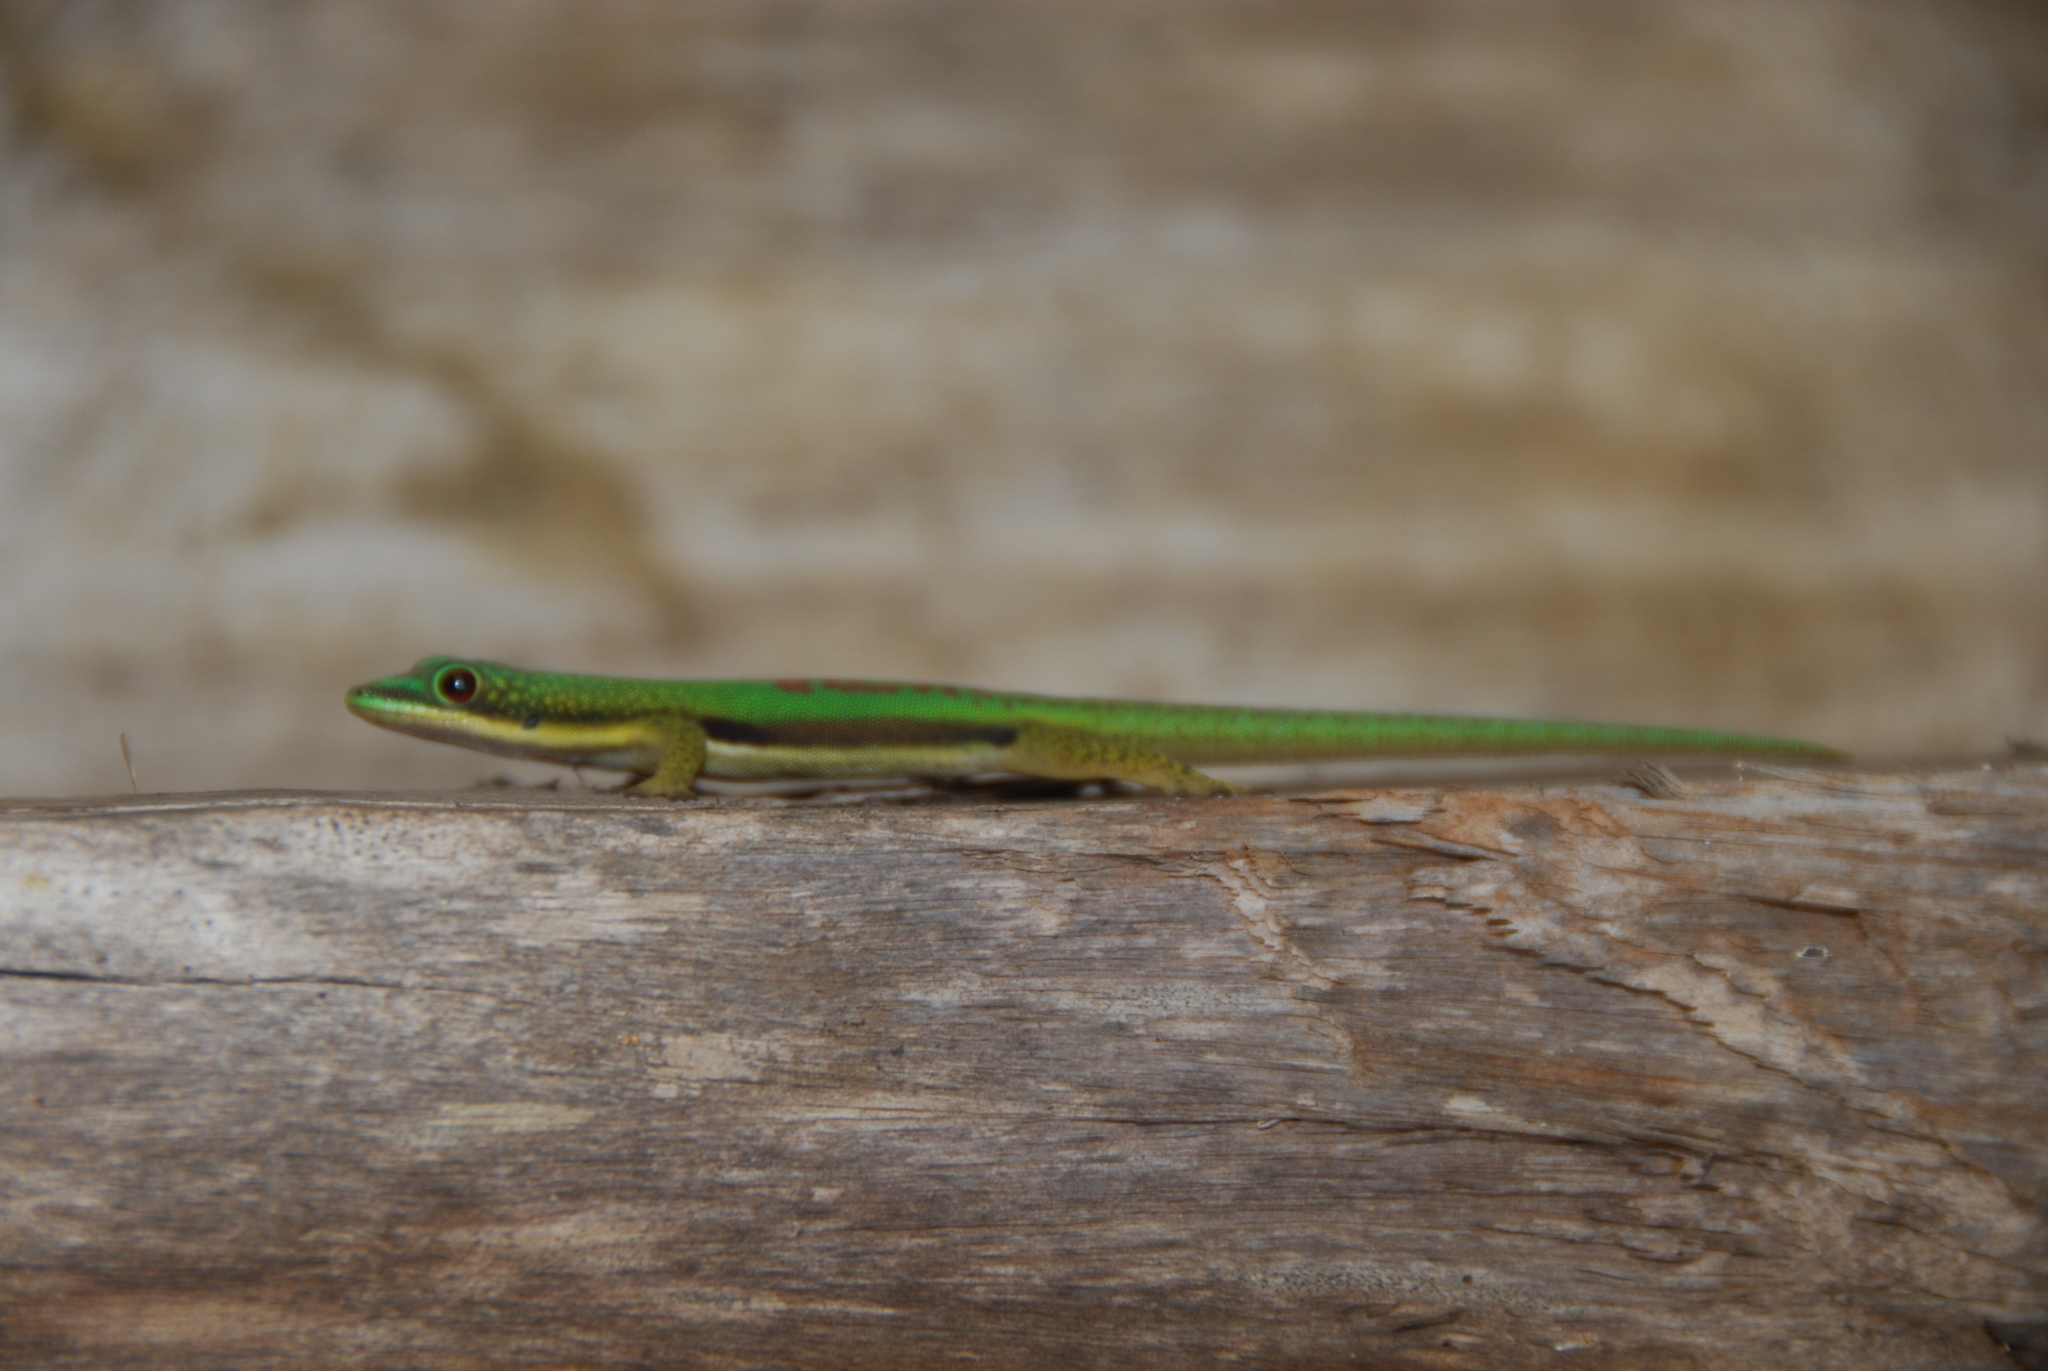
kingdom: Animalia
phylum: Chordata
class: Squamata
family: Gekkonidae
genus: Phelsuma
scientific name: Phelsuma lineata
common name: Lined day gecko
